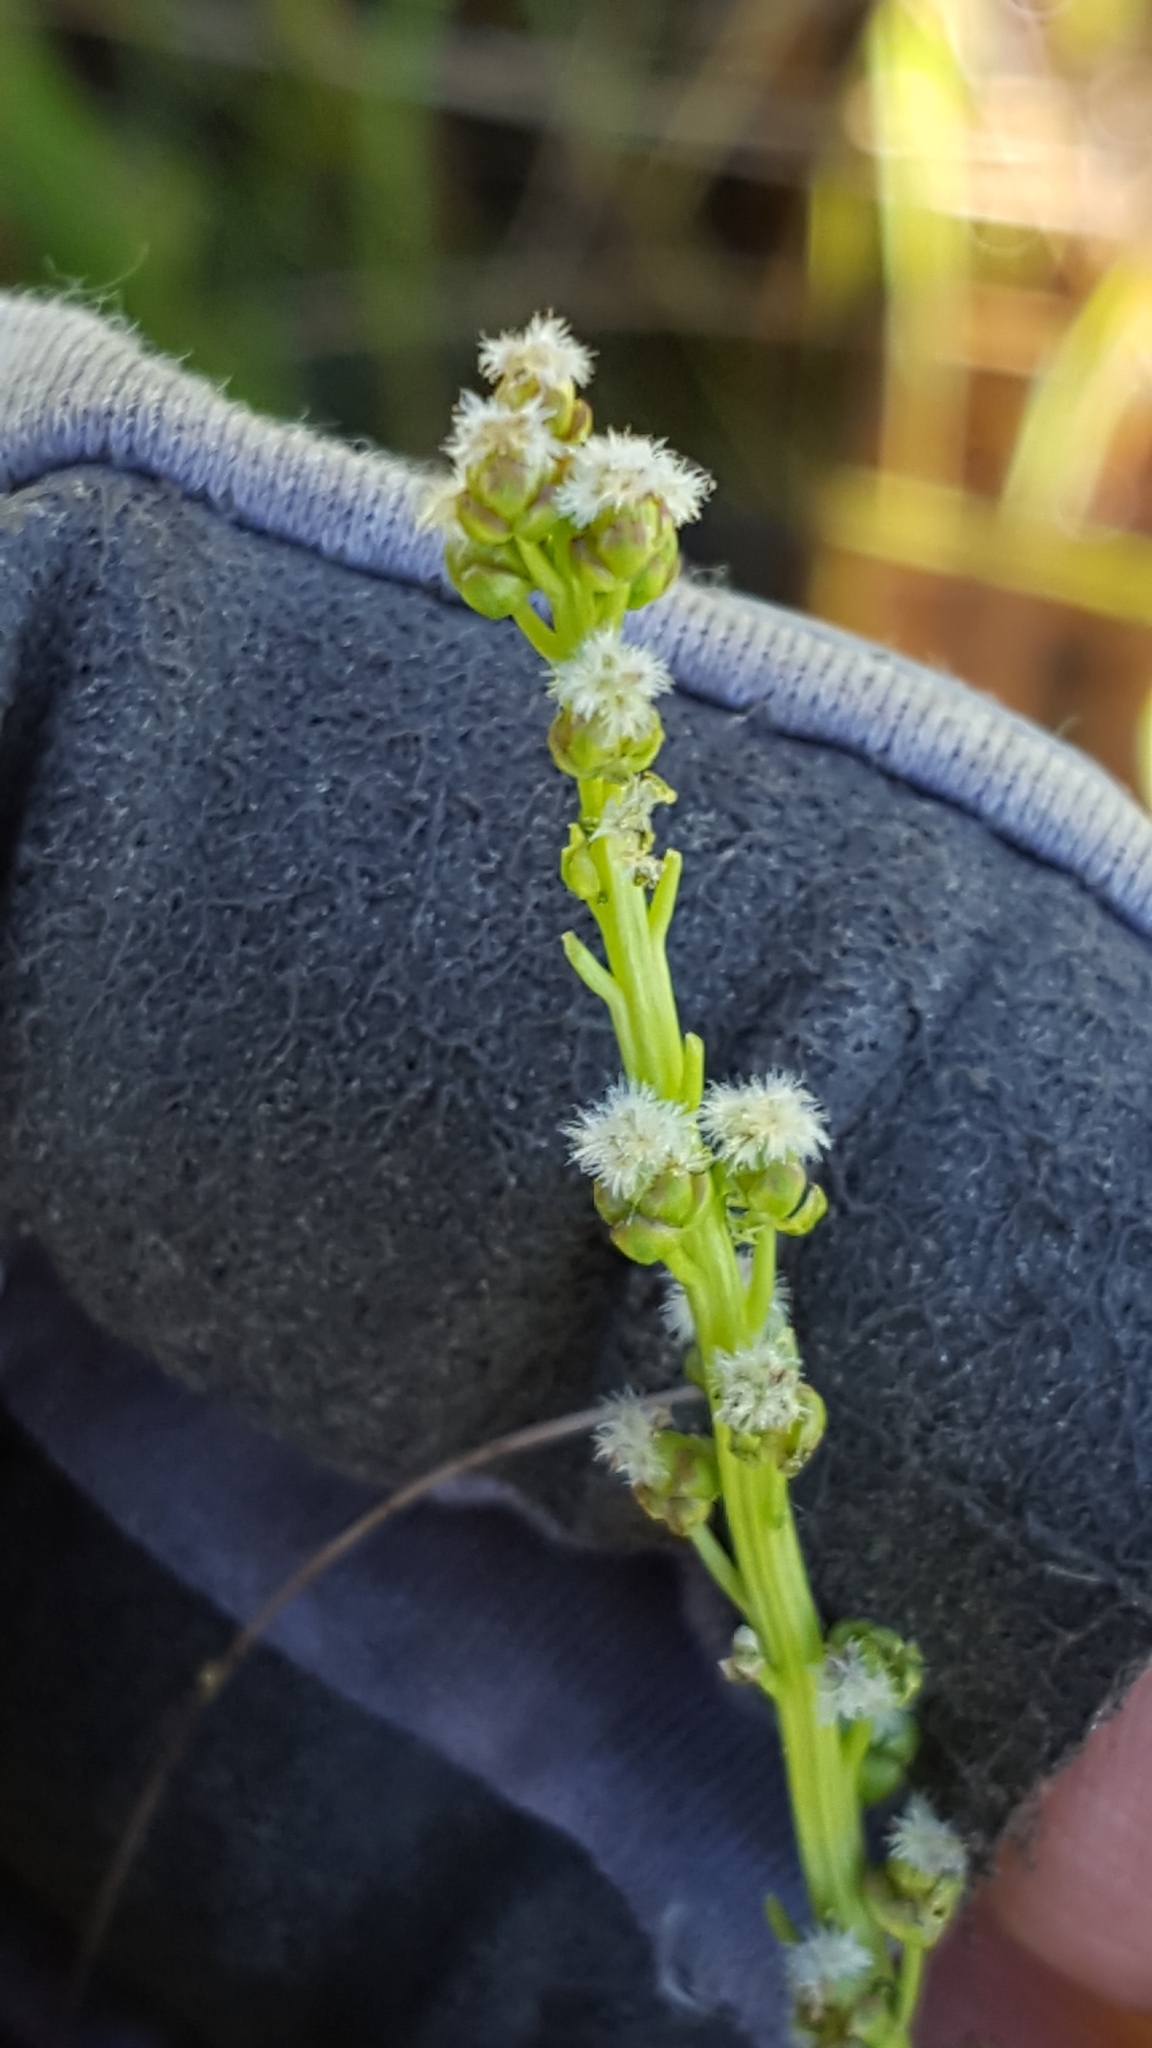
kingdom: Plantae
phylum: Tracheophyta
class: Liliopsida
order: Alismatales
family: Juncaginaceae
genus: Triglochin
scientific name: Triglochin maritima
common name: Sea arrowgrass
